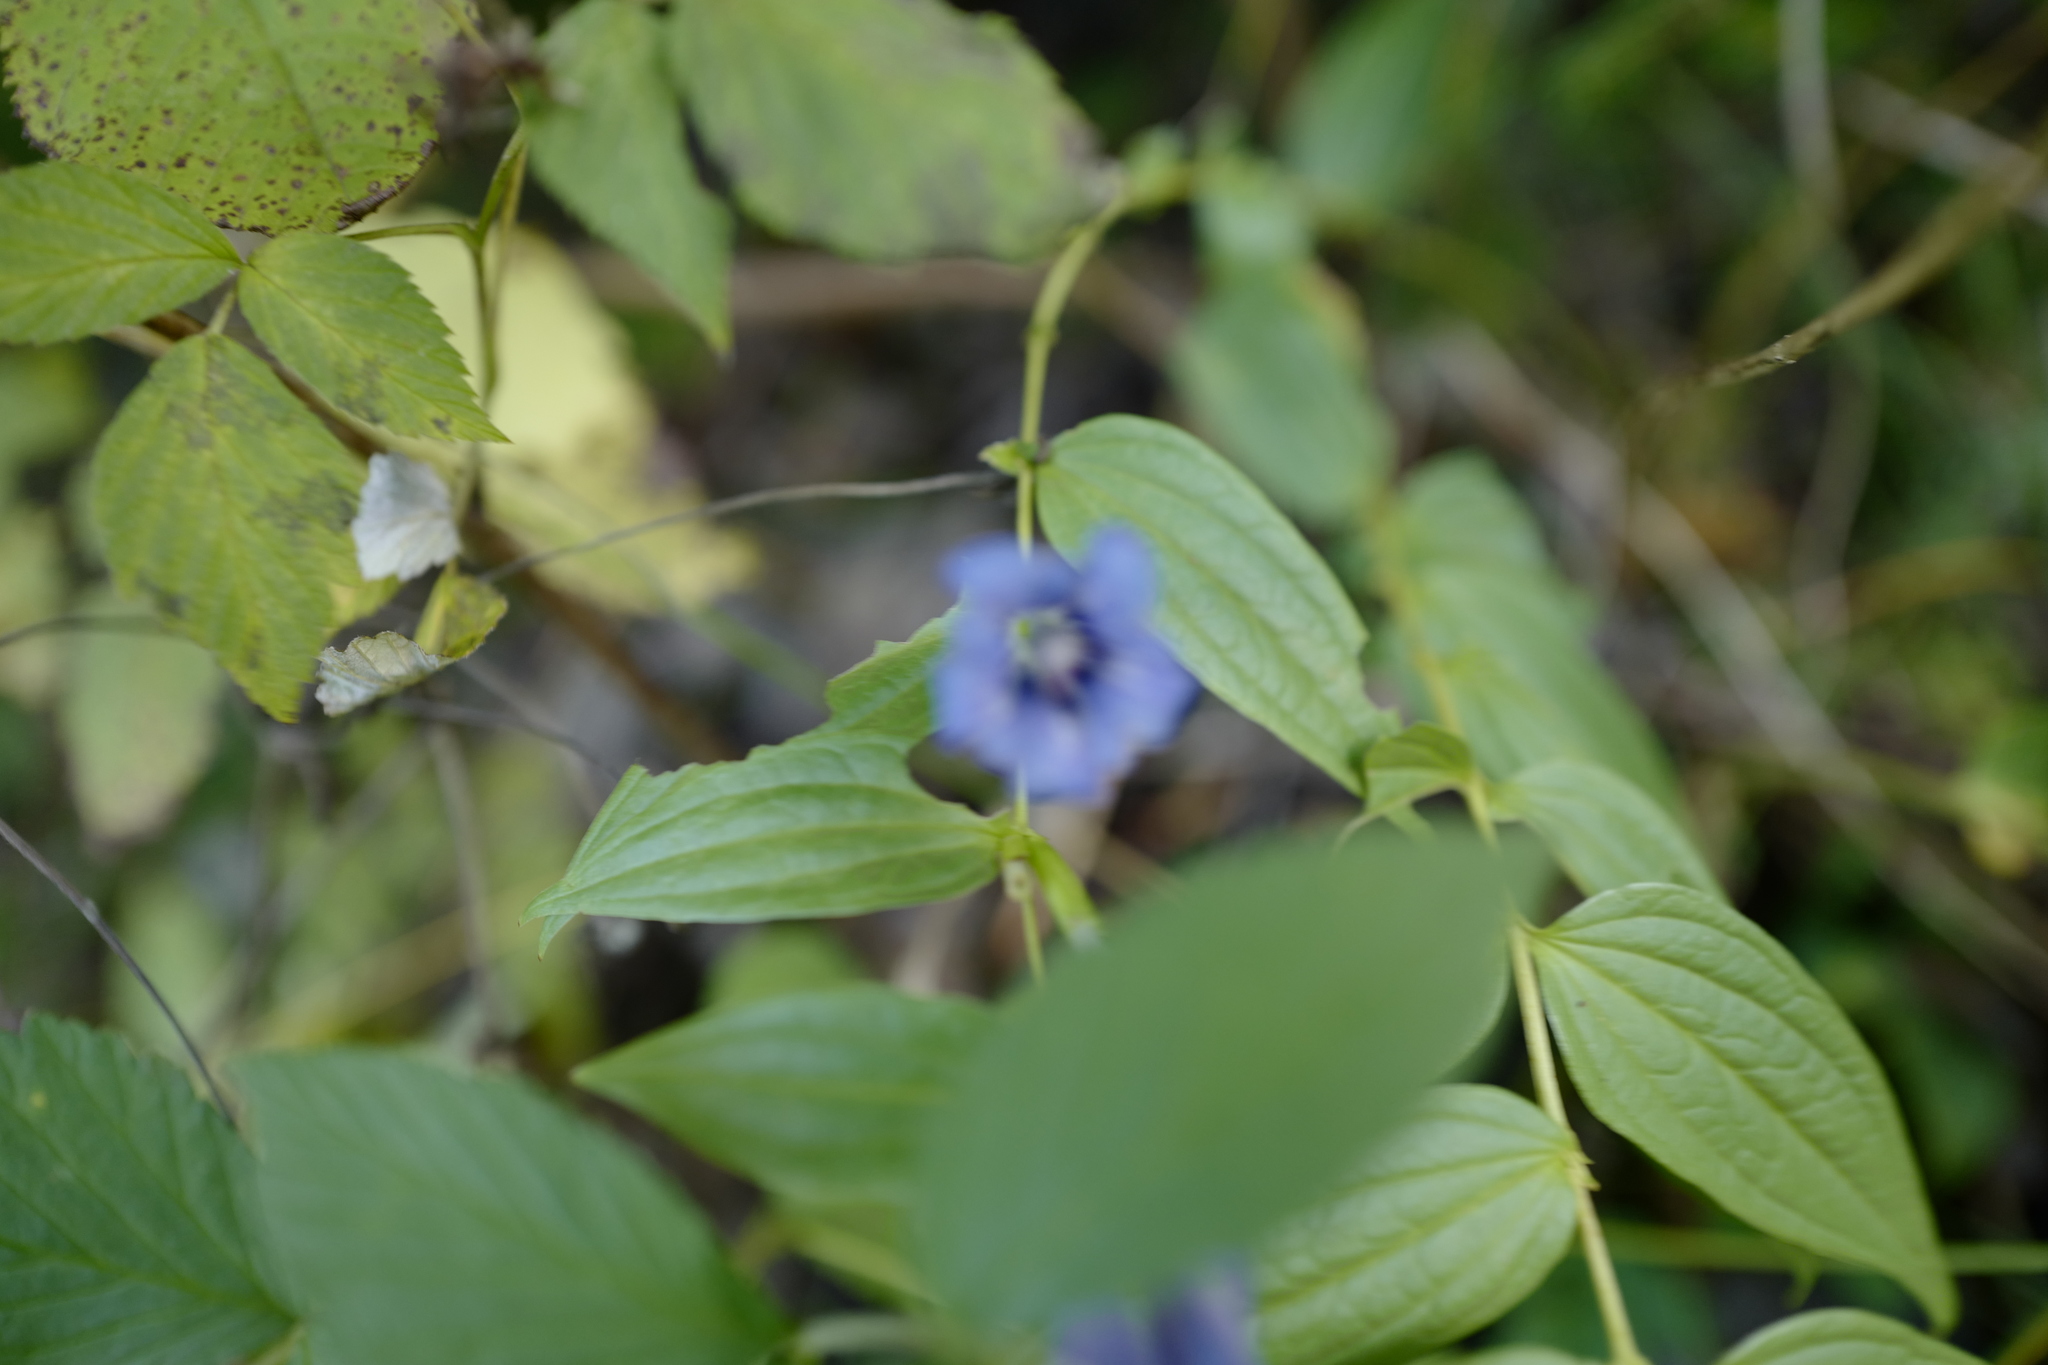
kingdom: Plantae
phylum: Tracheophyta
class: Magnoliopsida
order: Gentianales
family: Gentianaceae
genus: Gentiana
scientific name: Gentiana asclepiadea
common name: Willow gentian
